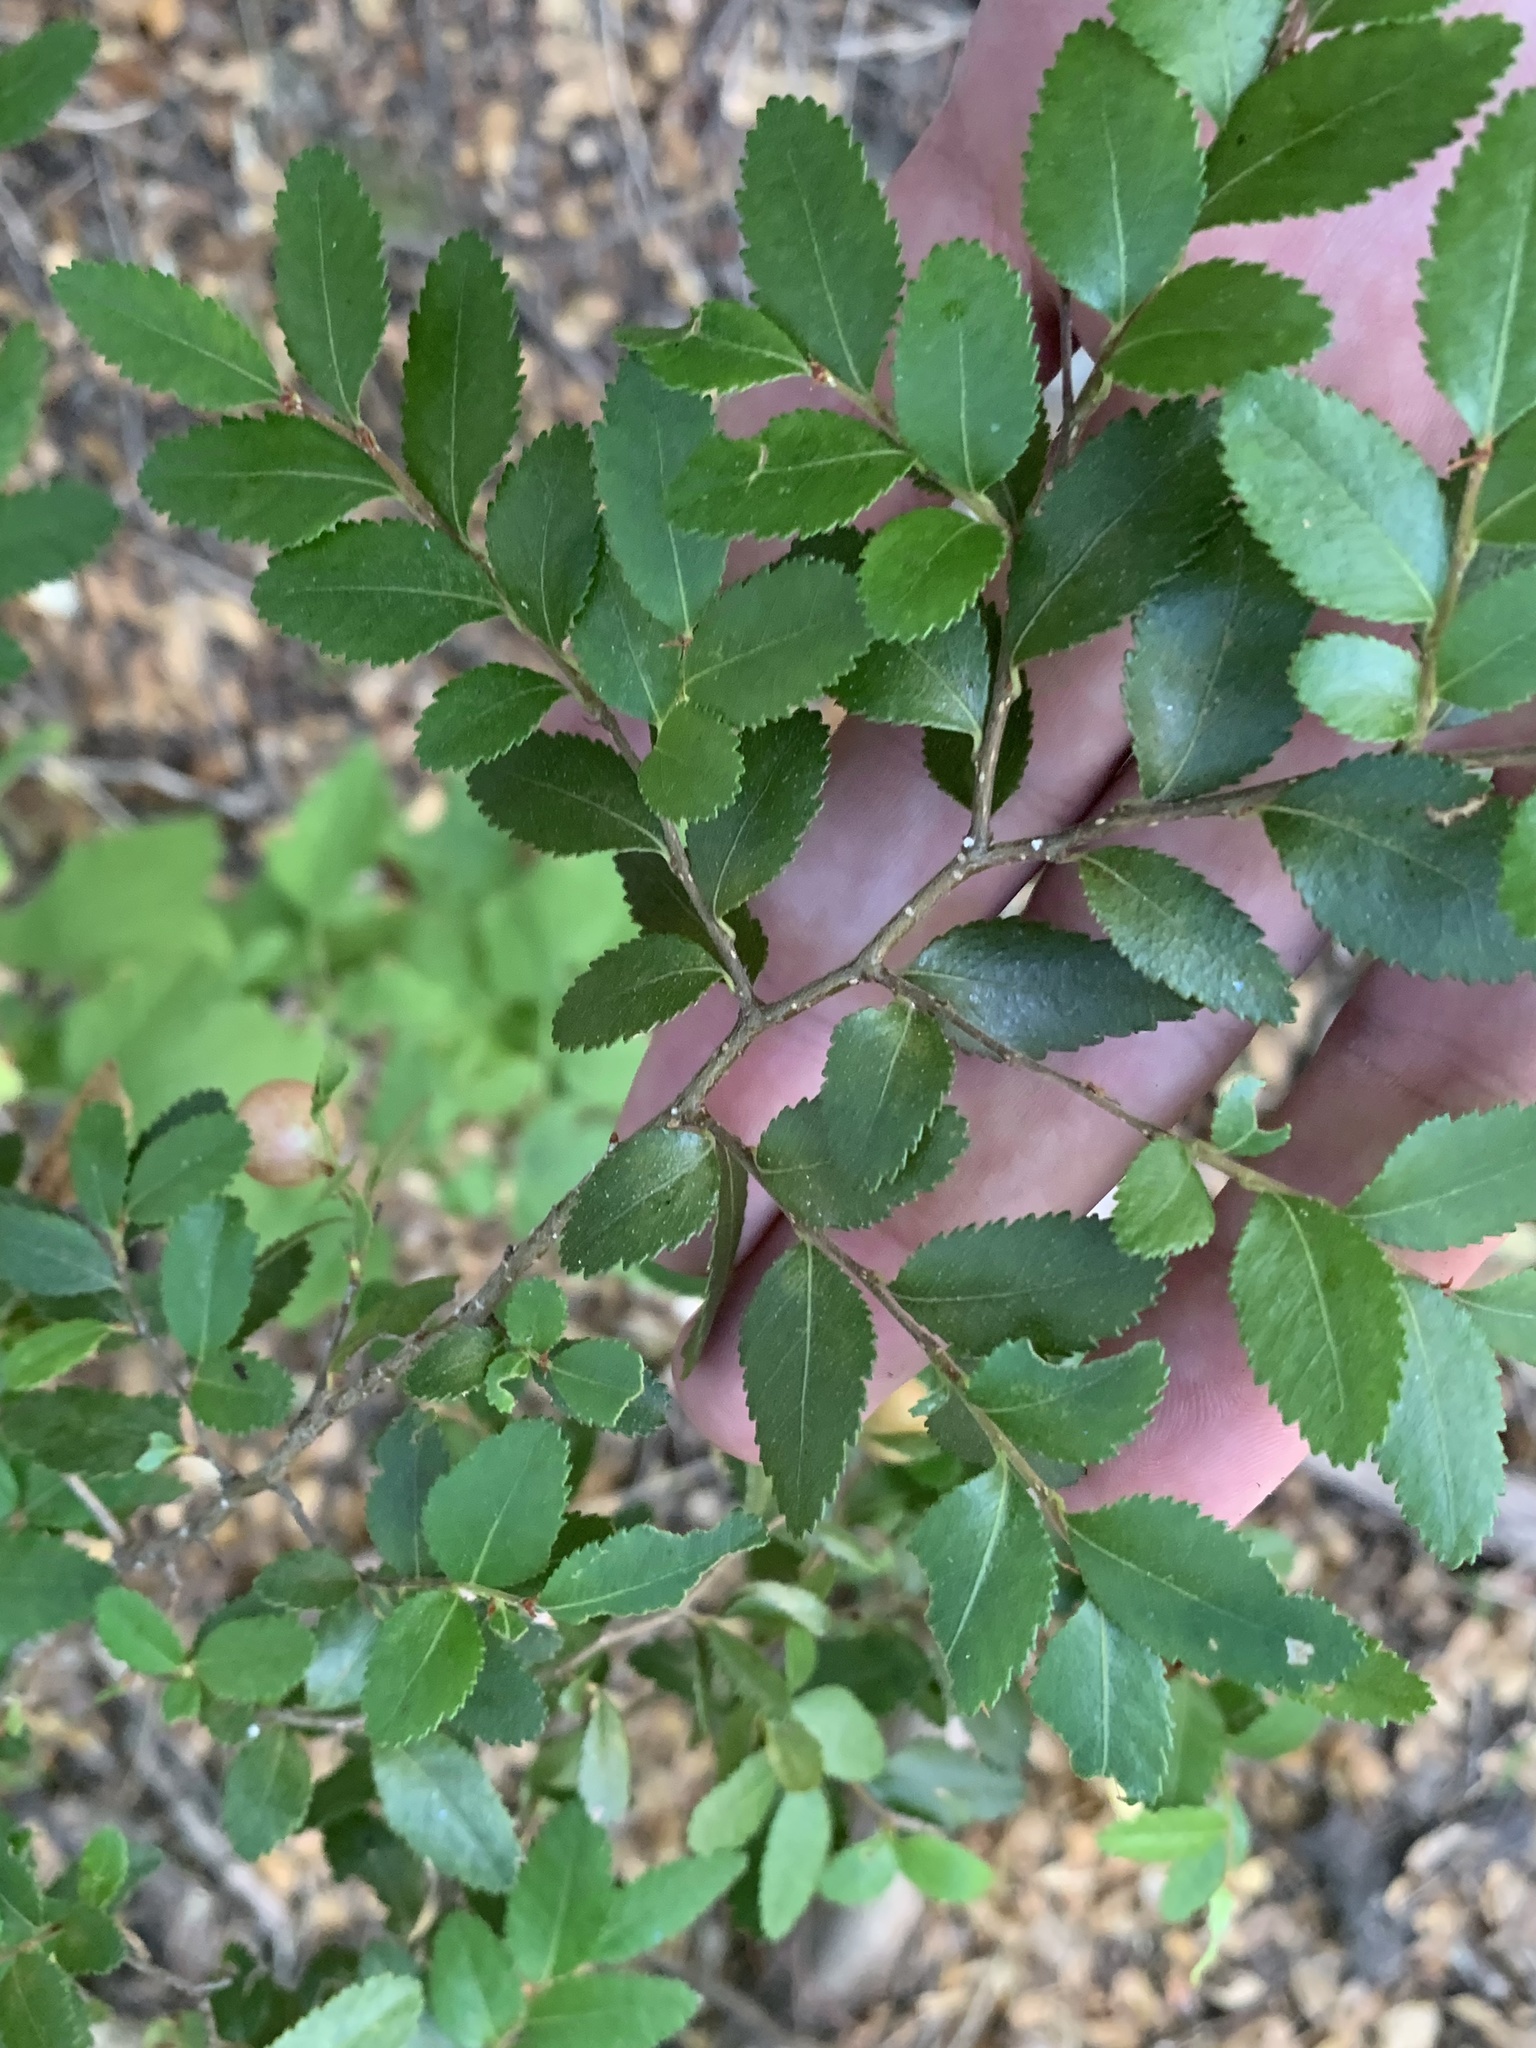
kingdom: Plantae
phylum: Tracheophyta
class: Magnoliopsida
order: Fagales
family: Nothofagaceae
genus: Nothofagus
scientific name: Nothofagus dombeyi
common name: Coigue
